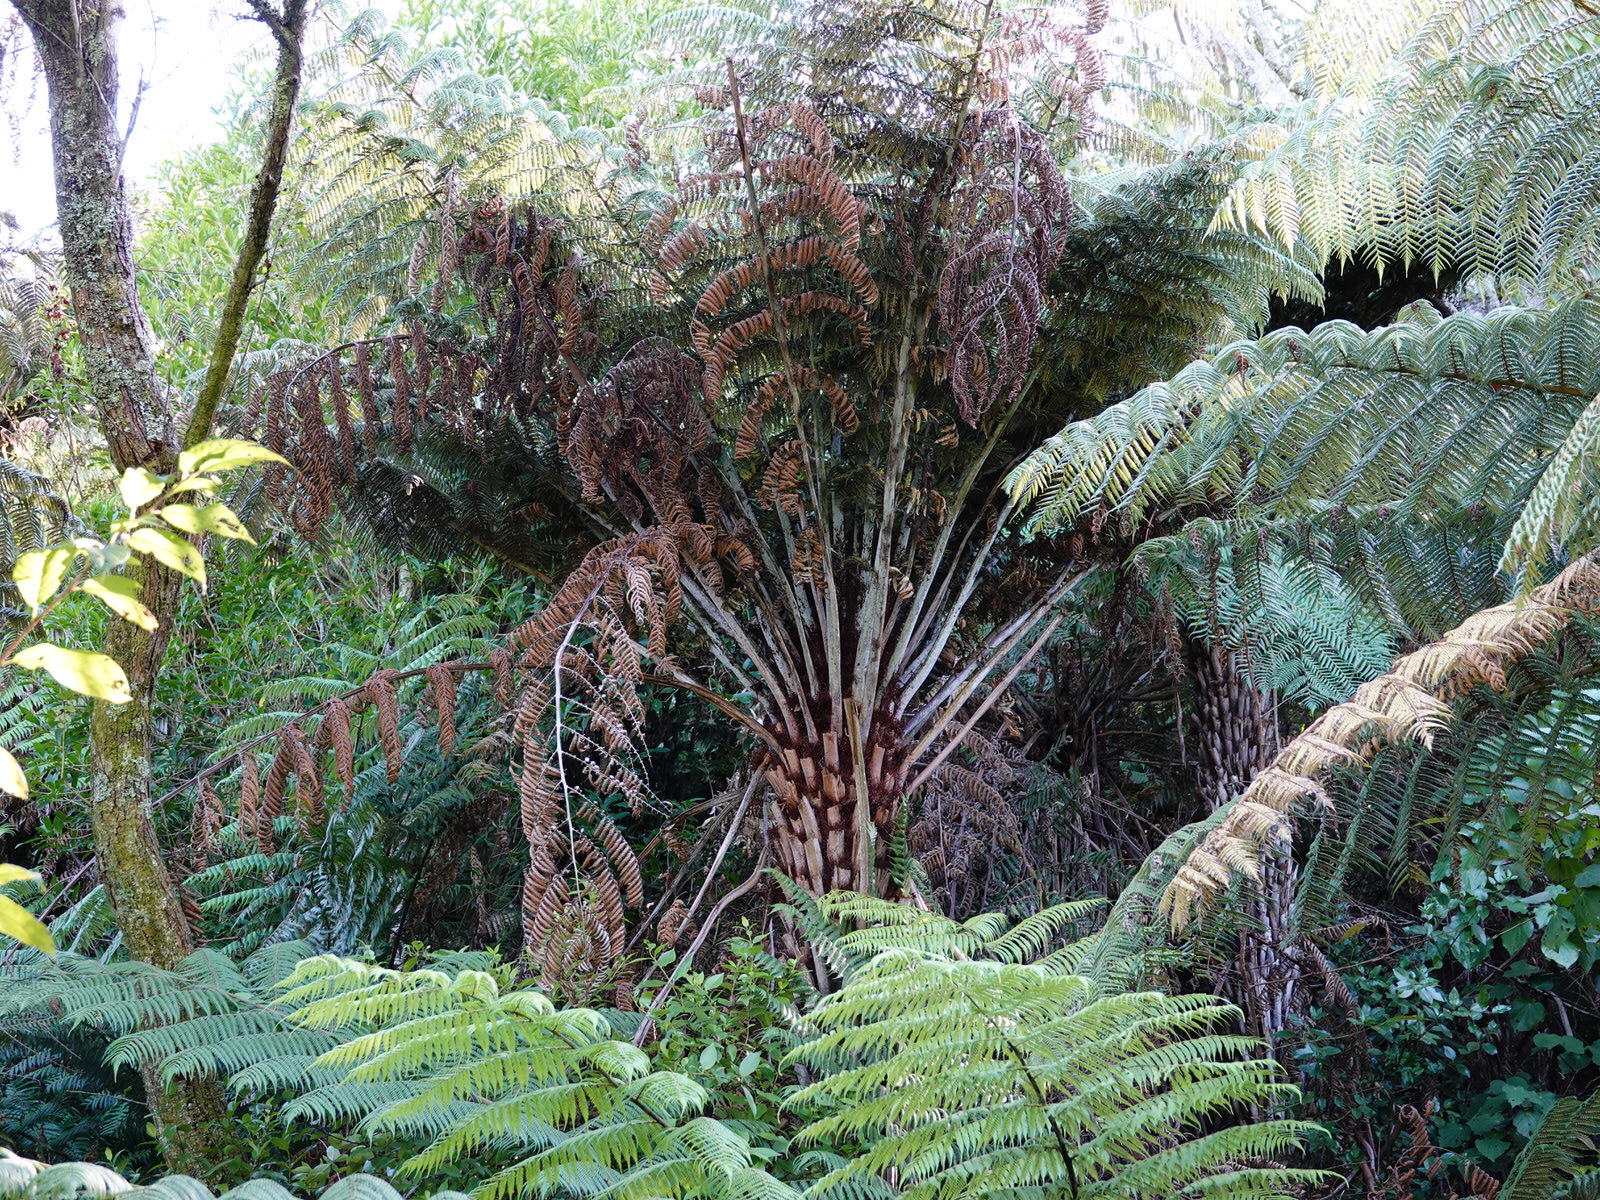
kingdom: Plantae
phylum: Tracheophyta
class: Polypodiopsida
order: Cyatheales
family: Cyatheaceae
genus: Alsophila
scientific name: Alsophila dealbata
